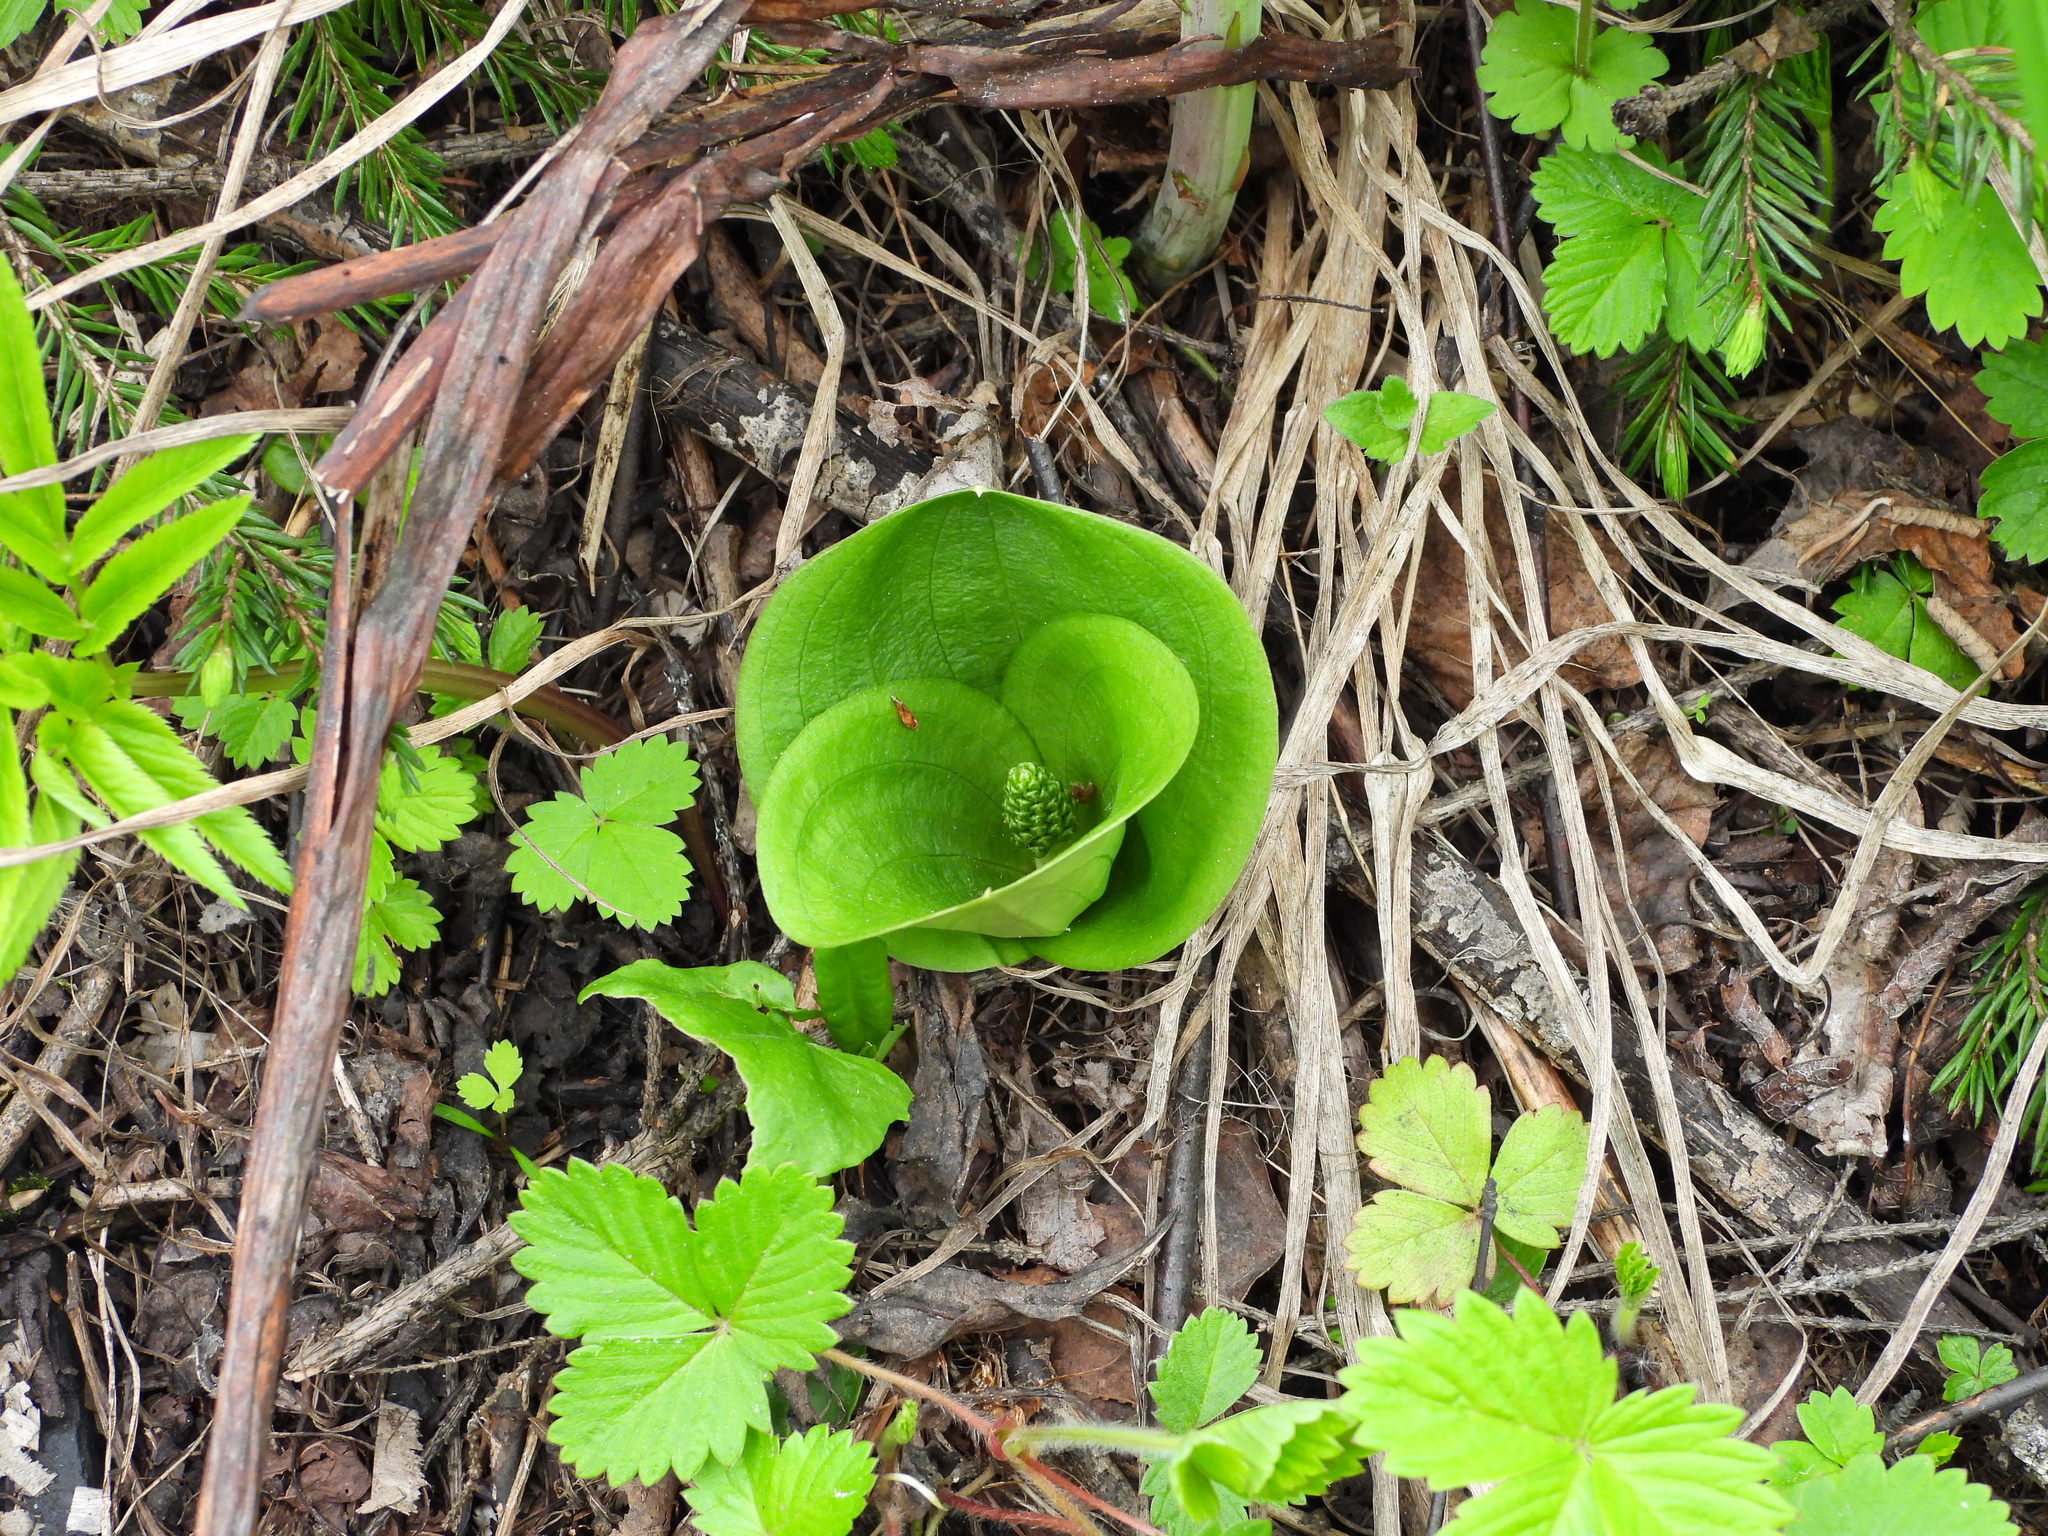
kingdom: Plantae
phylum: Tracheophyta
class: Liliopsida
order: Asparagales
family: Orchidaceae
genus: Neottia
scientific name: Neottia ovata
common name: Common twayblade
